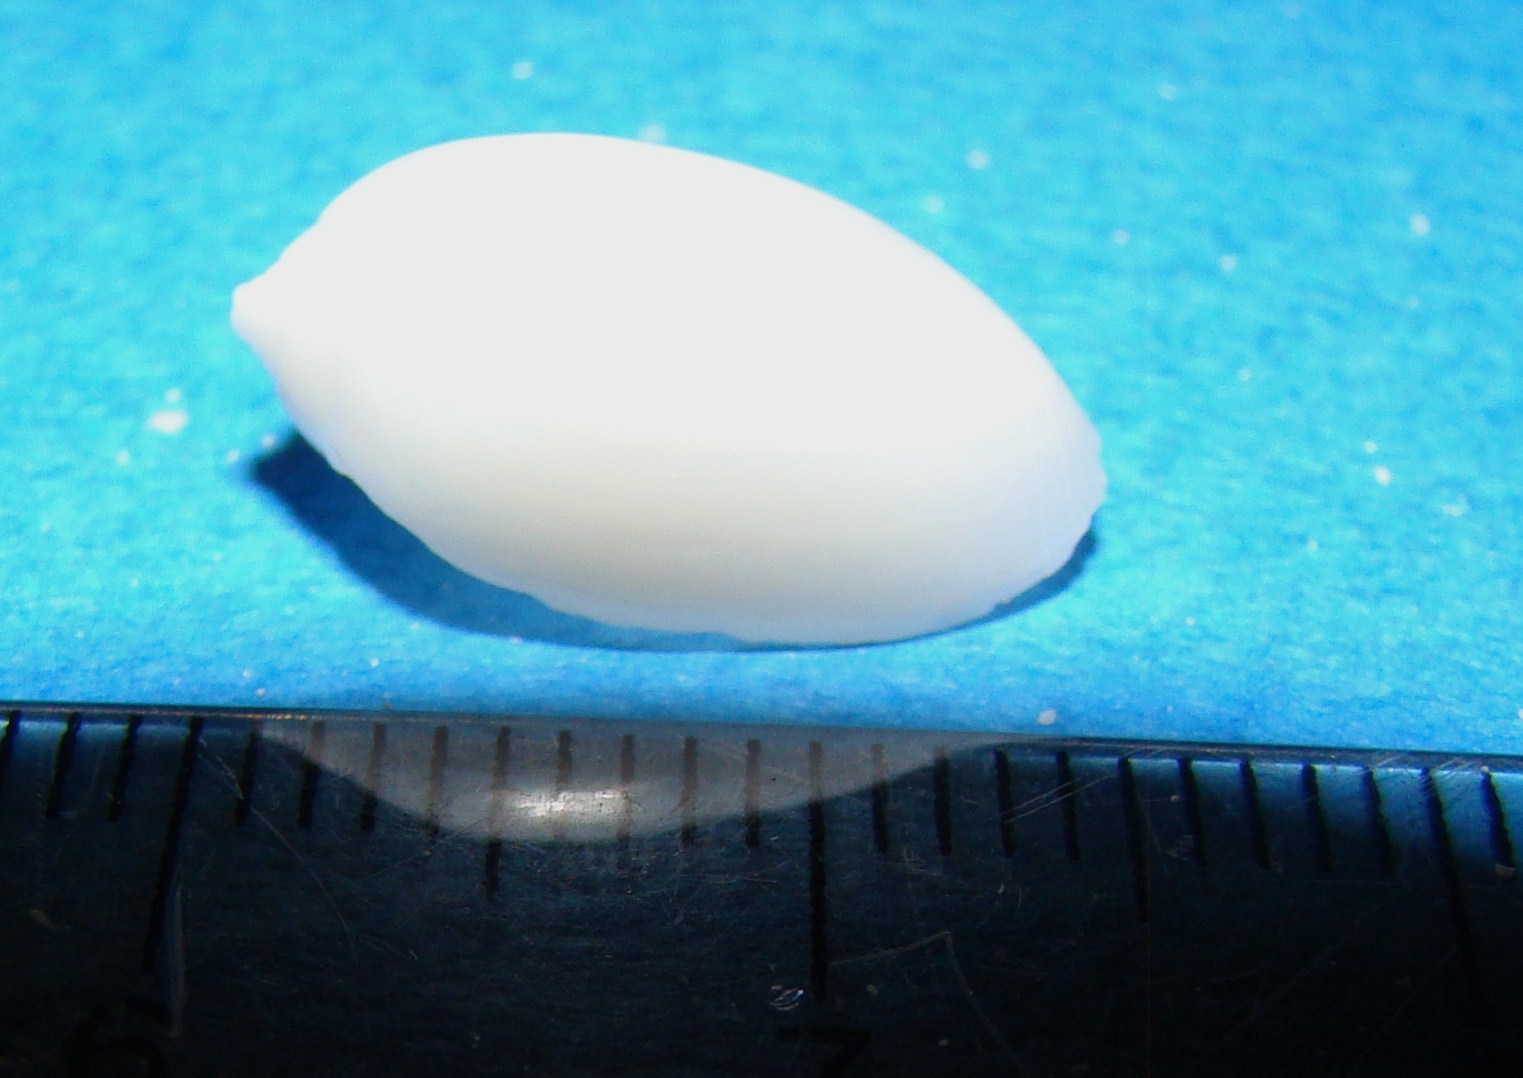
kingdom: Animalia
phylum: Mollusca
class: Gastropoda
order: Cephalaspidea
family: Acteonidae
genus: Pupa
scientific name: Pupa nitidula
